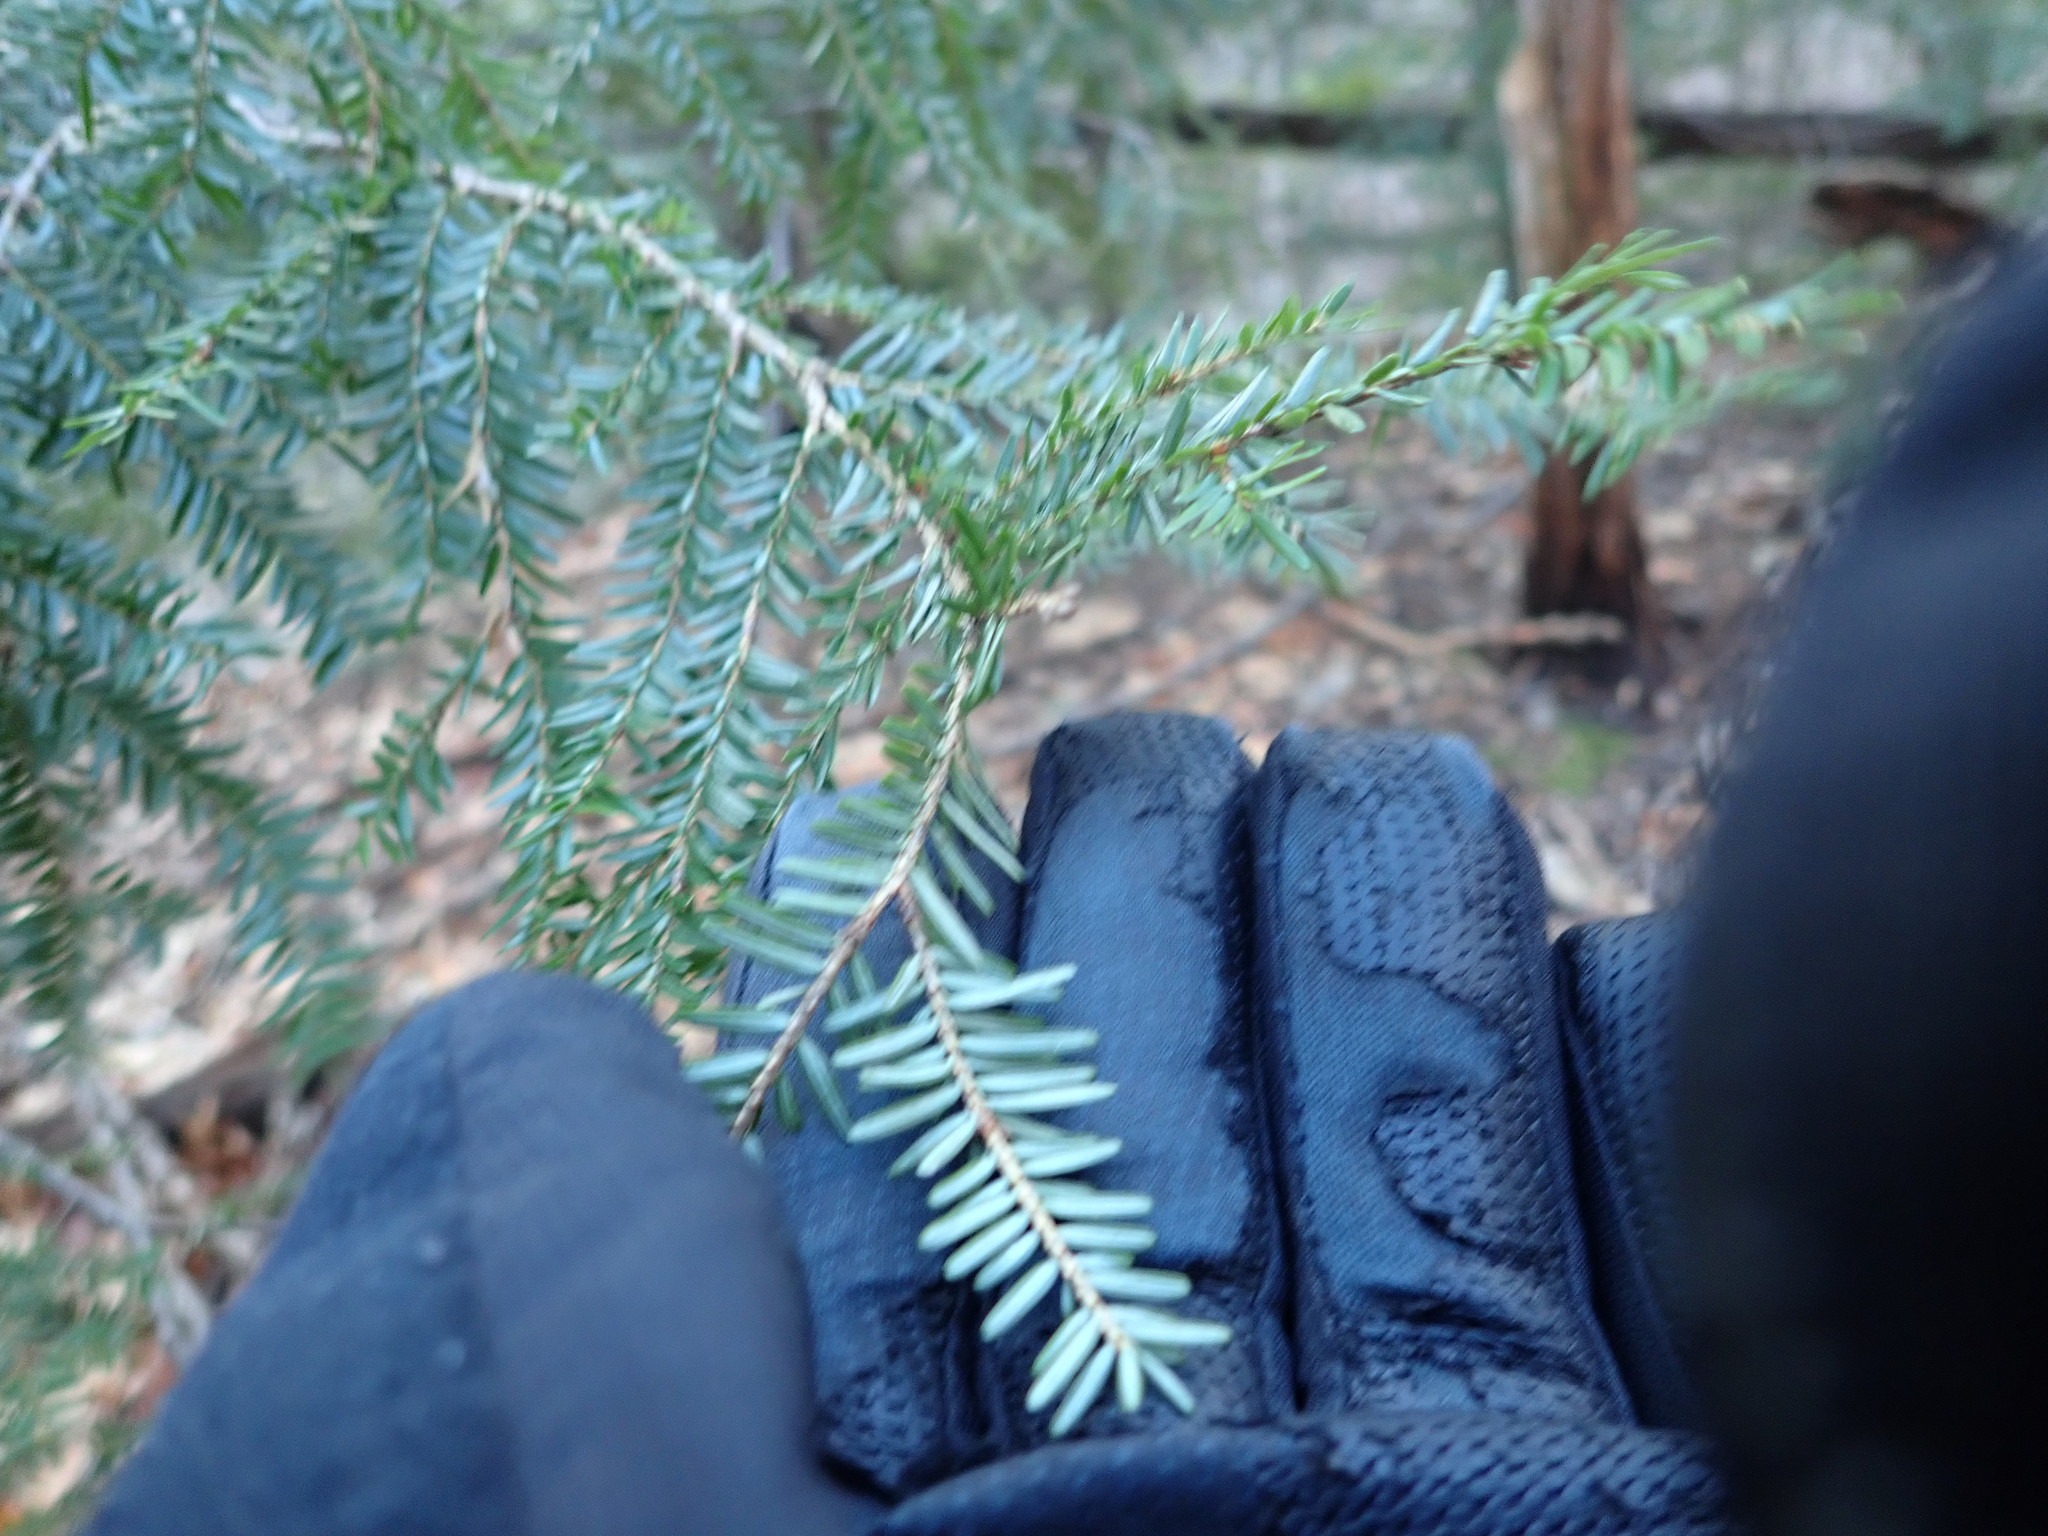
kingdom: Plantae
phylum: Tracheophyta
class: Pinopsida
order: Pinales
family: Pinaceae
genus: Tsuga
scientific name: Tsuga canadensis
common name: Eastern hemlock
